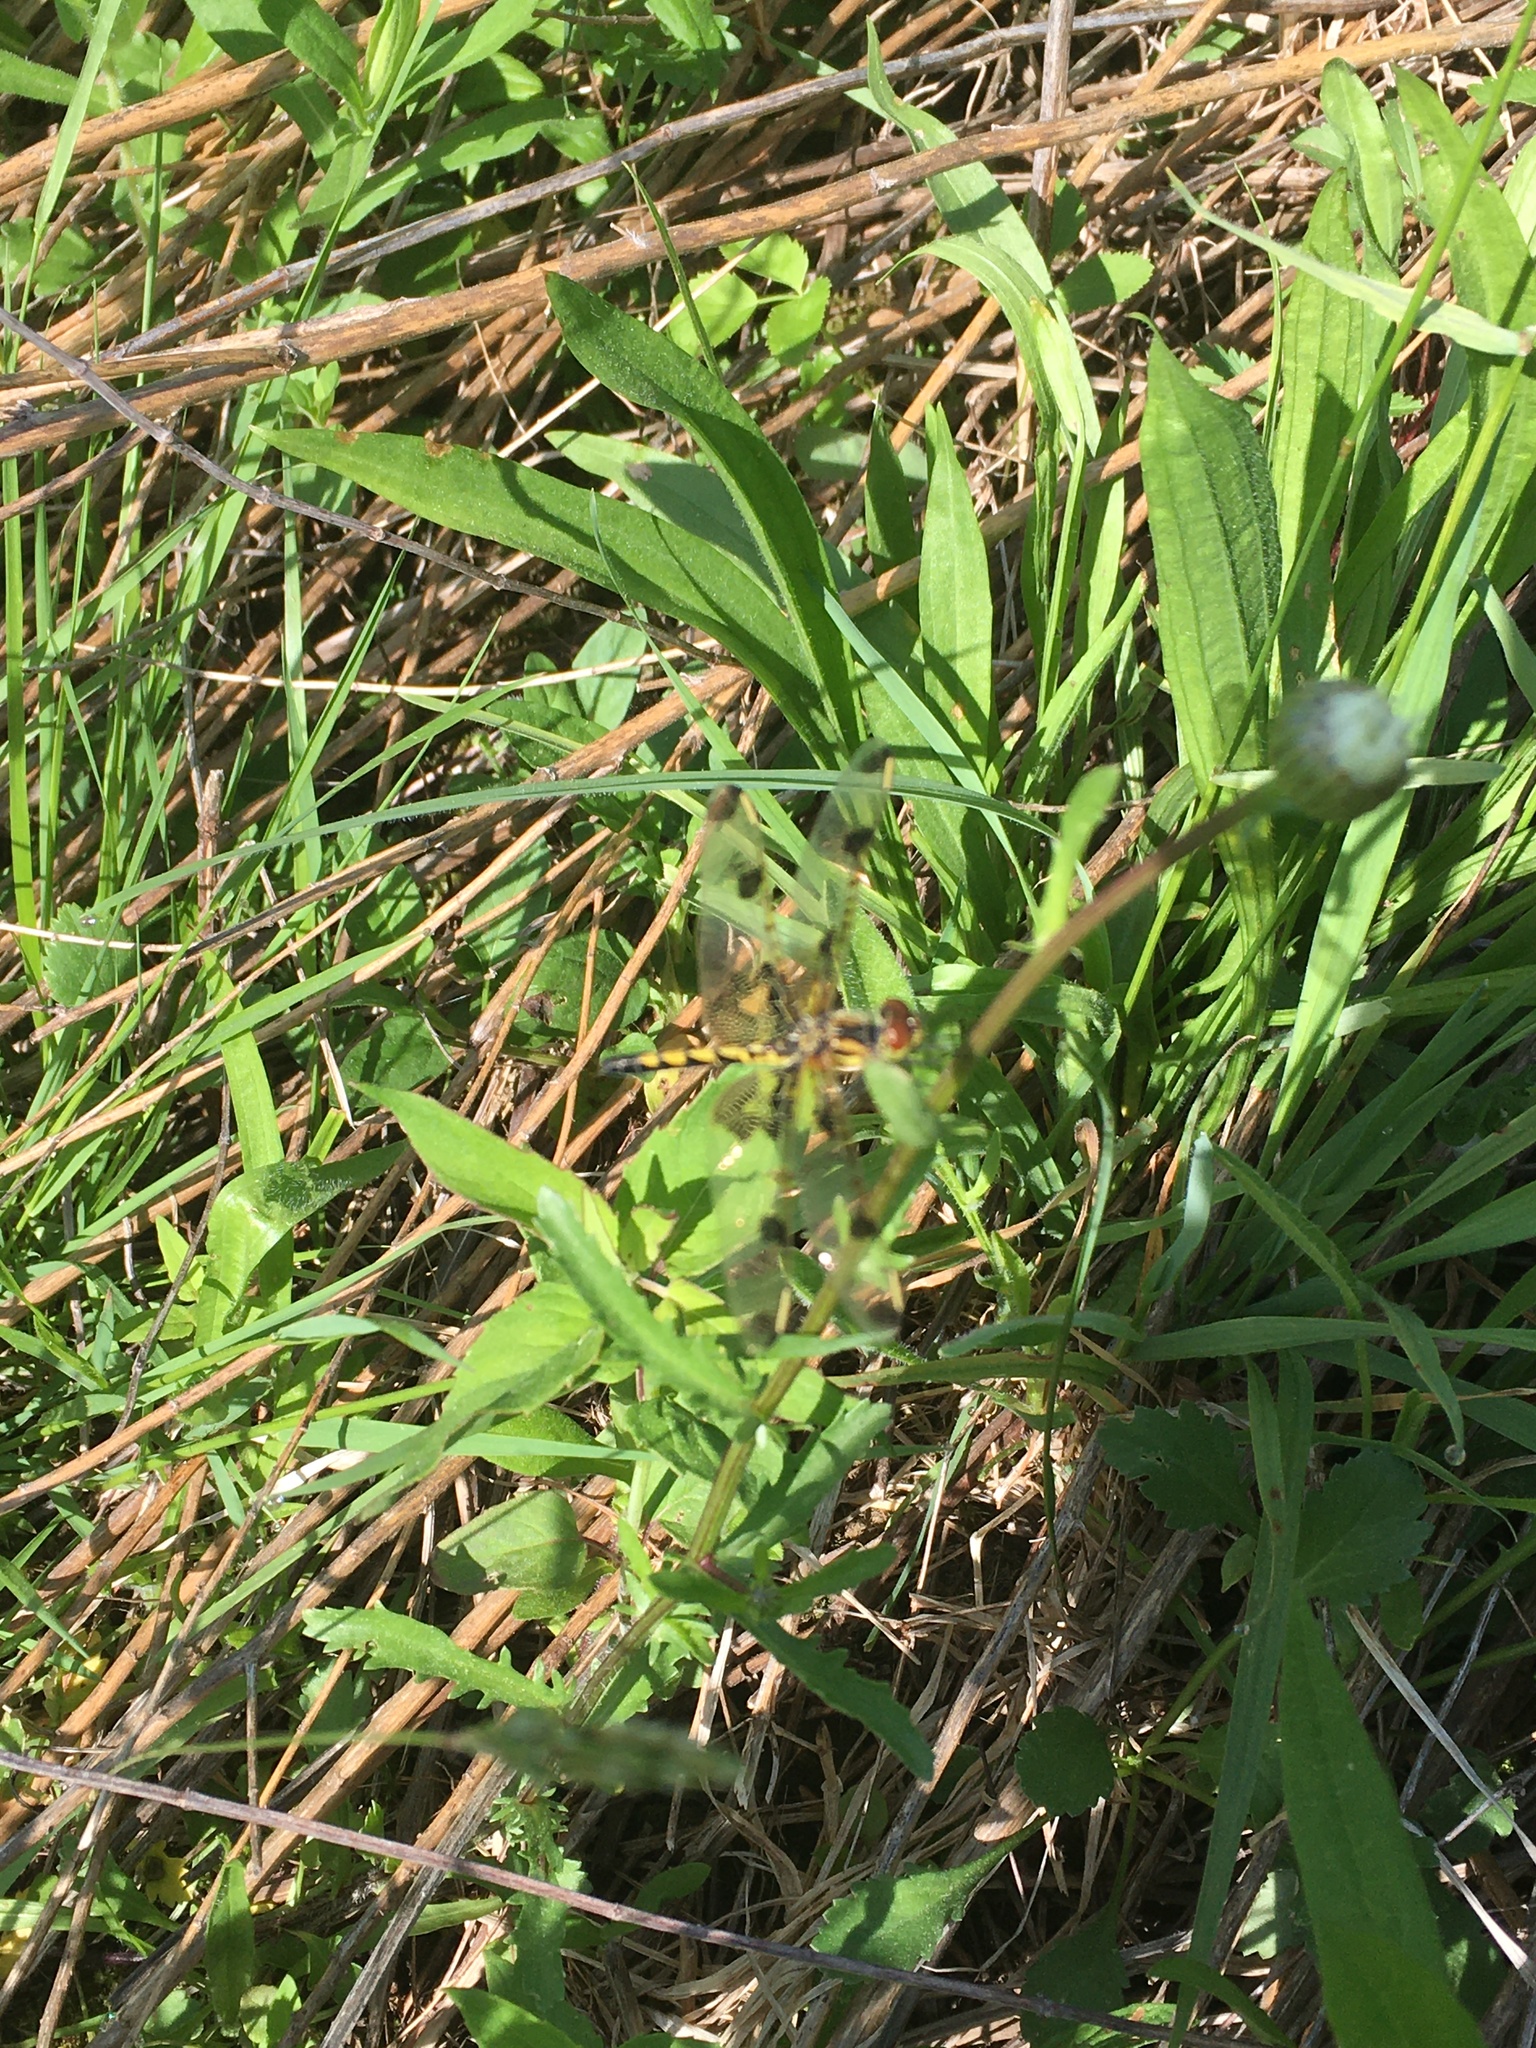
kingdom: Animalia
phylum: Arthropoda
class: Insecta
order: Odonata
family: Libellulidae
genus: Celithemis
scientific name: Celithemis elisa
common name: Calico pennant
